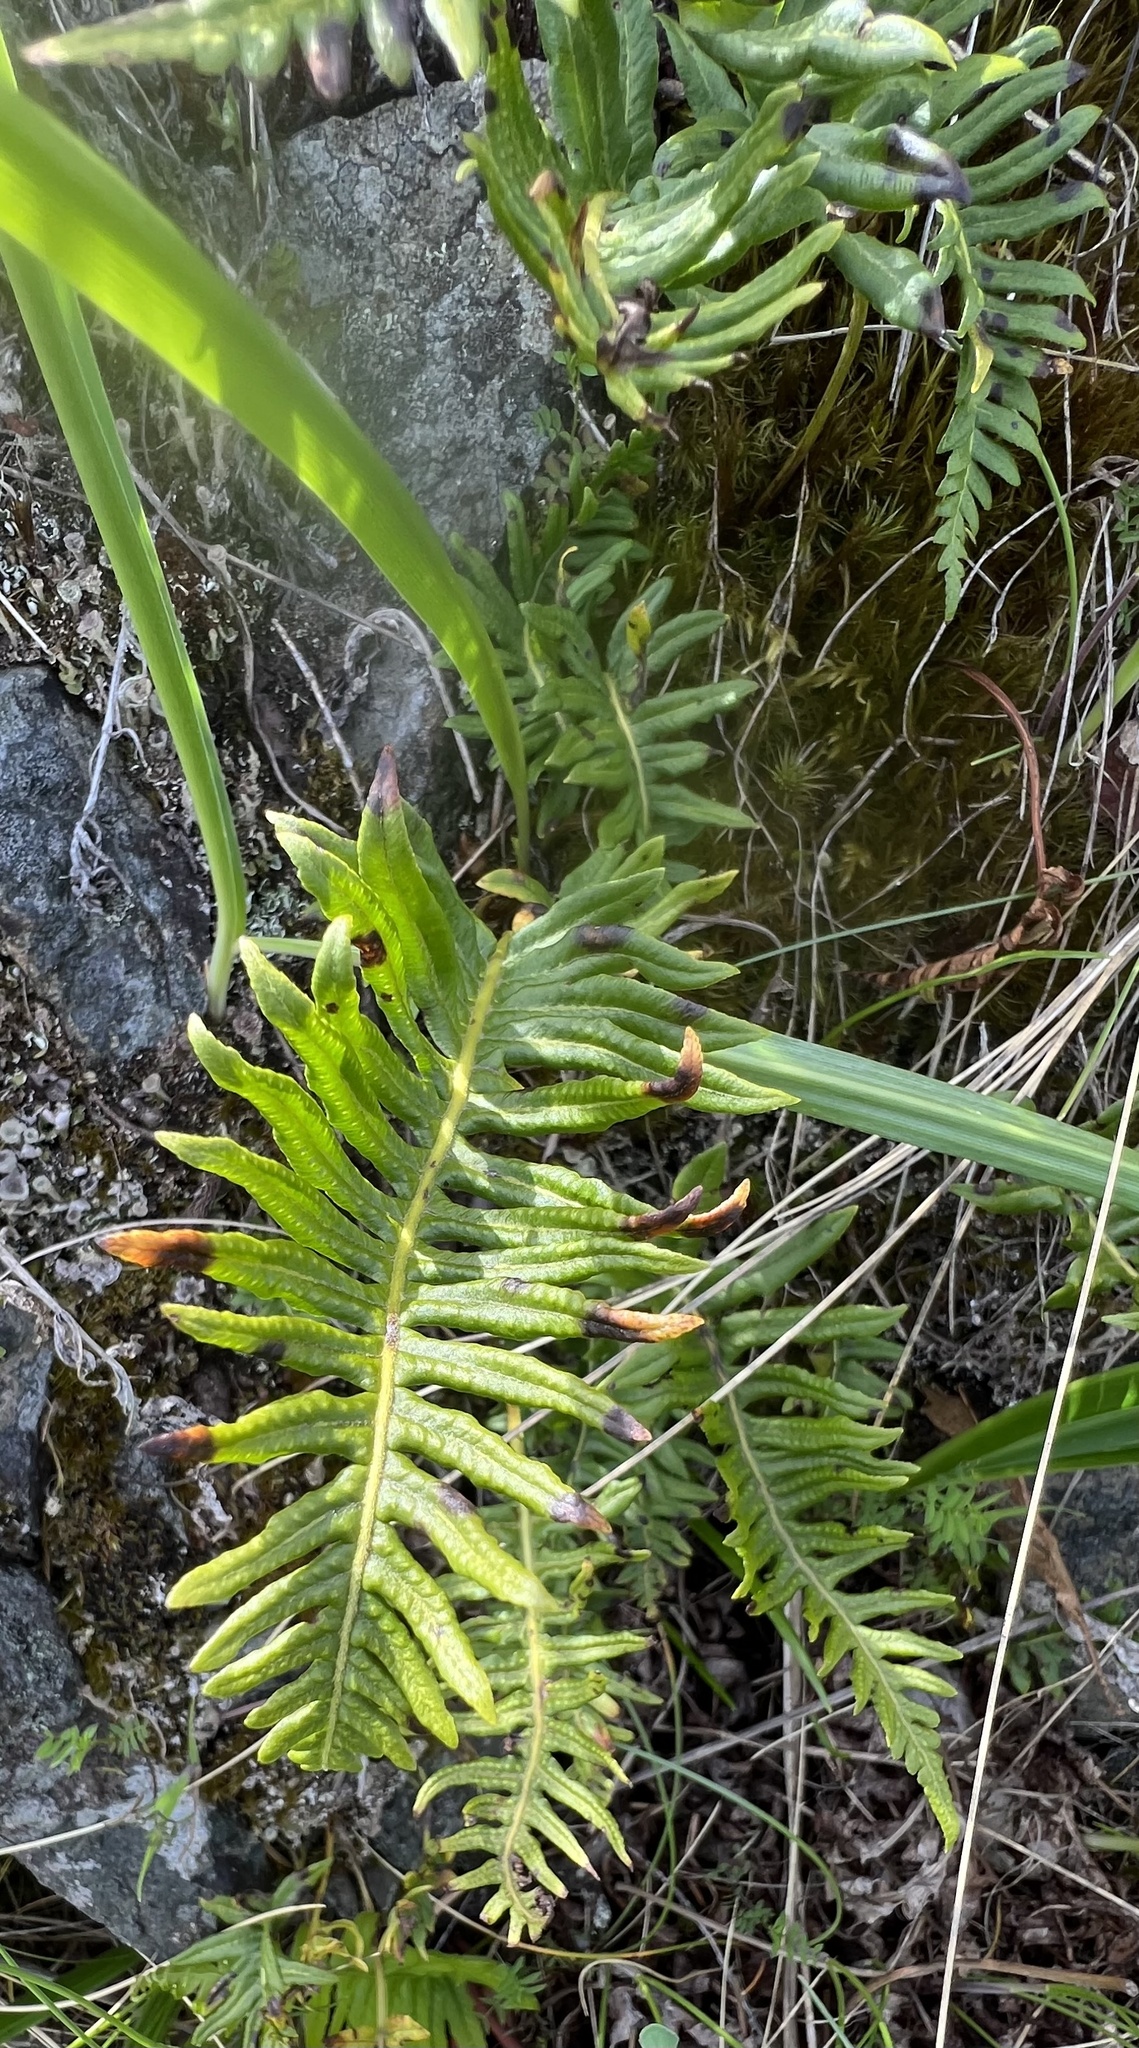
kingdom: Plantae
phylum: Tracheophyta
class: Polypodiopsida
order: Polypodiales
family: Polypodiaceae
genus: Polypodium
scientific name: Polypodium glycyrrhiza
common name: Licorice fern
